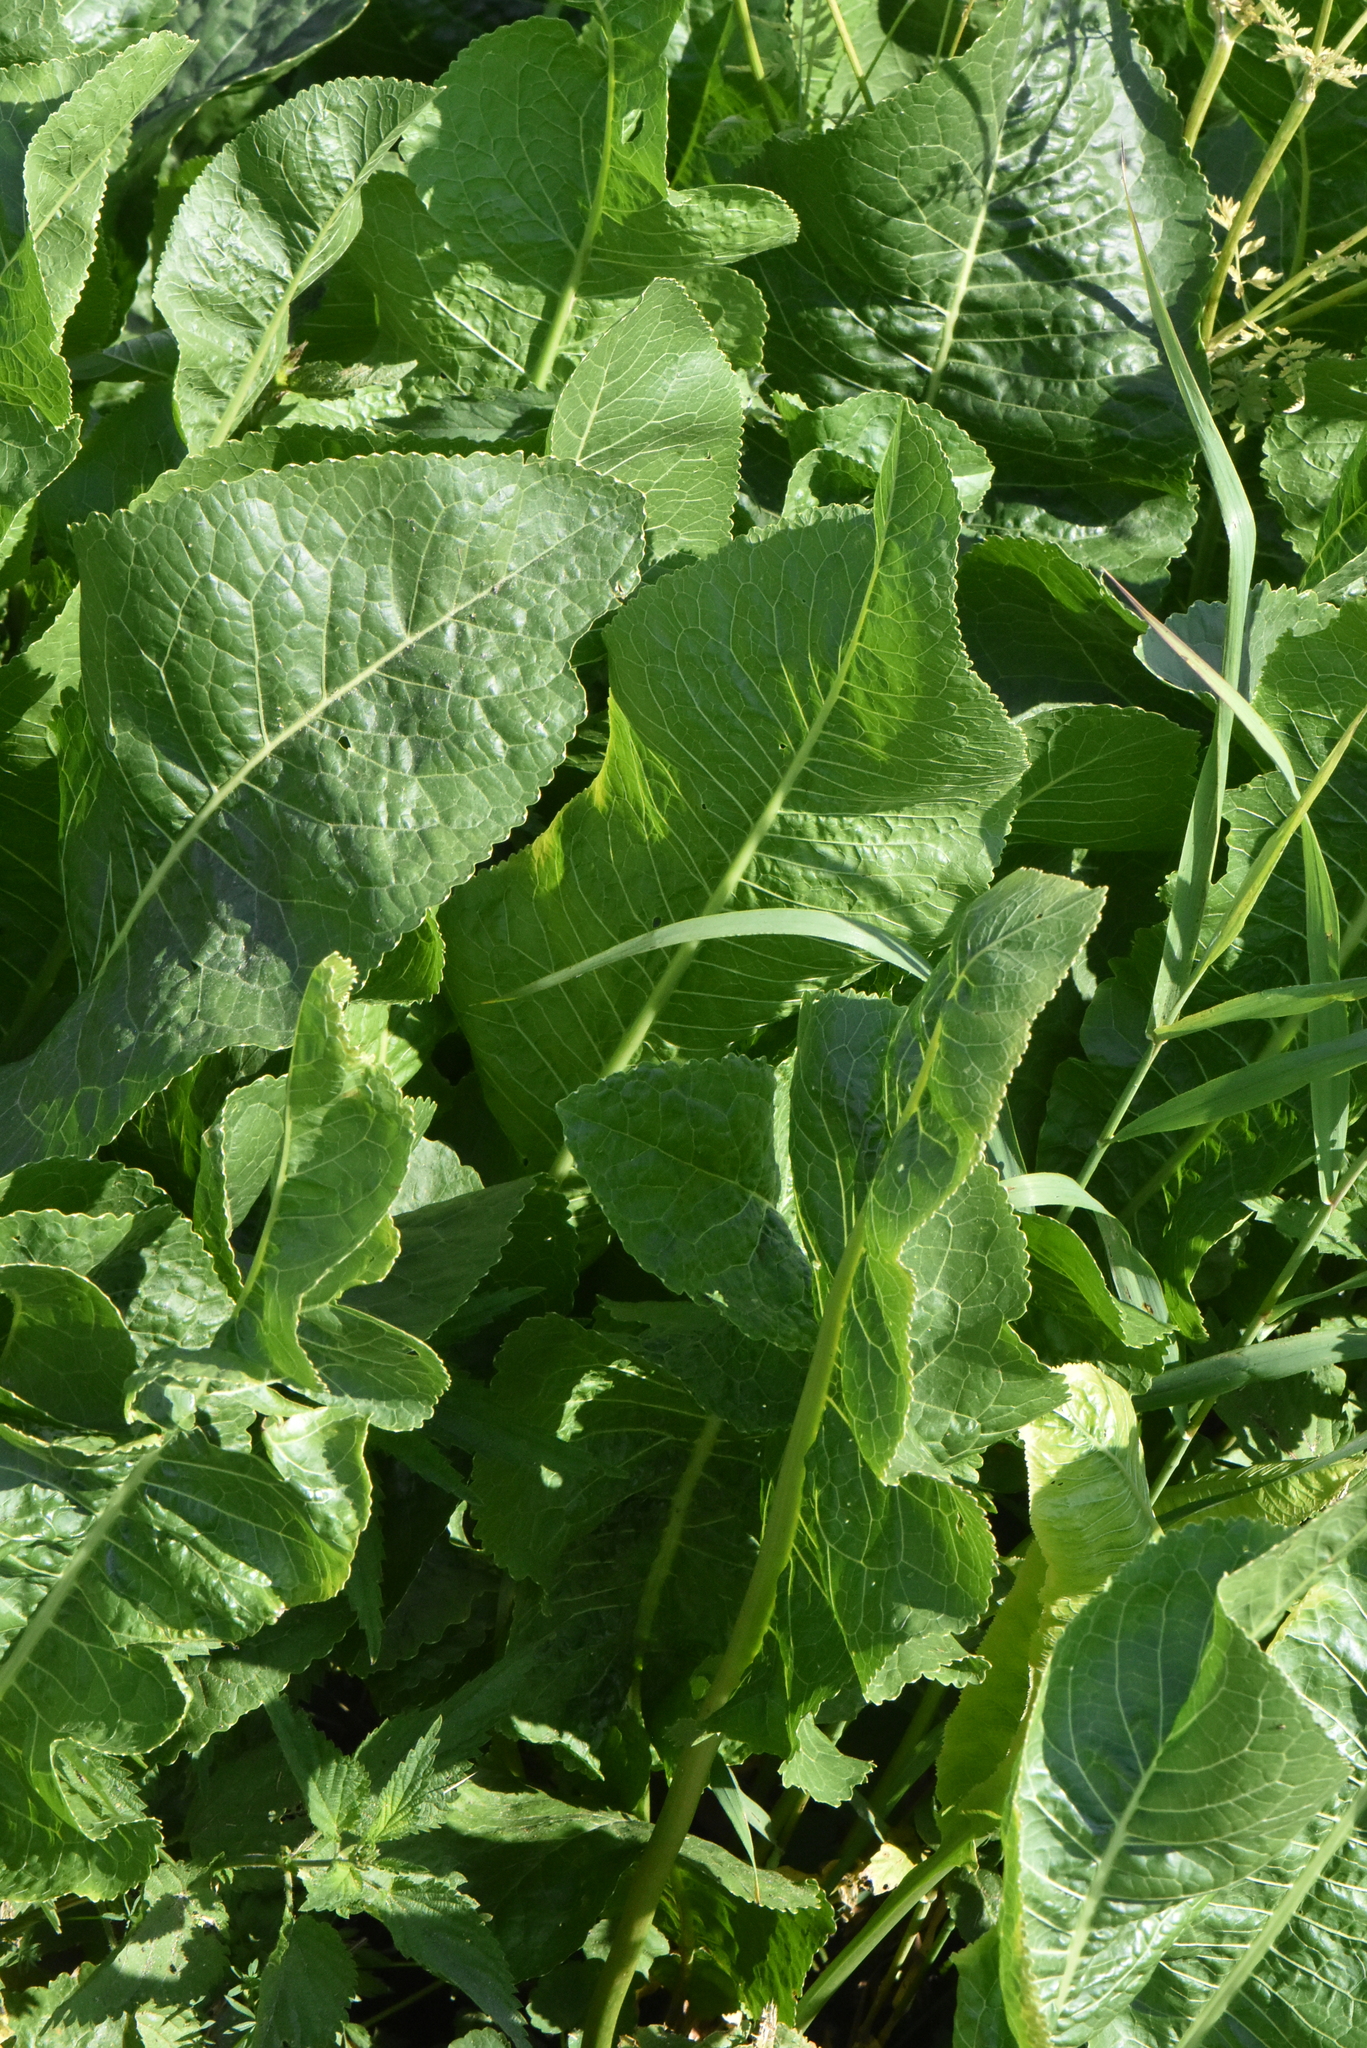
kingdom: Plantae
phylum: Tracheophyta
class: Magnoliopsida
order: Brassicales
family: Brassicaceae
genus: Armoracia
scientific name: Armoracia rusticana
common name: Horseradish
